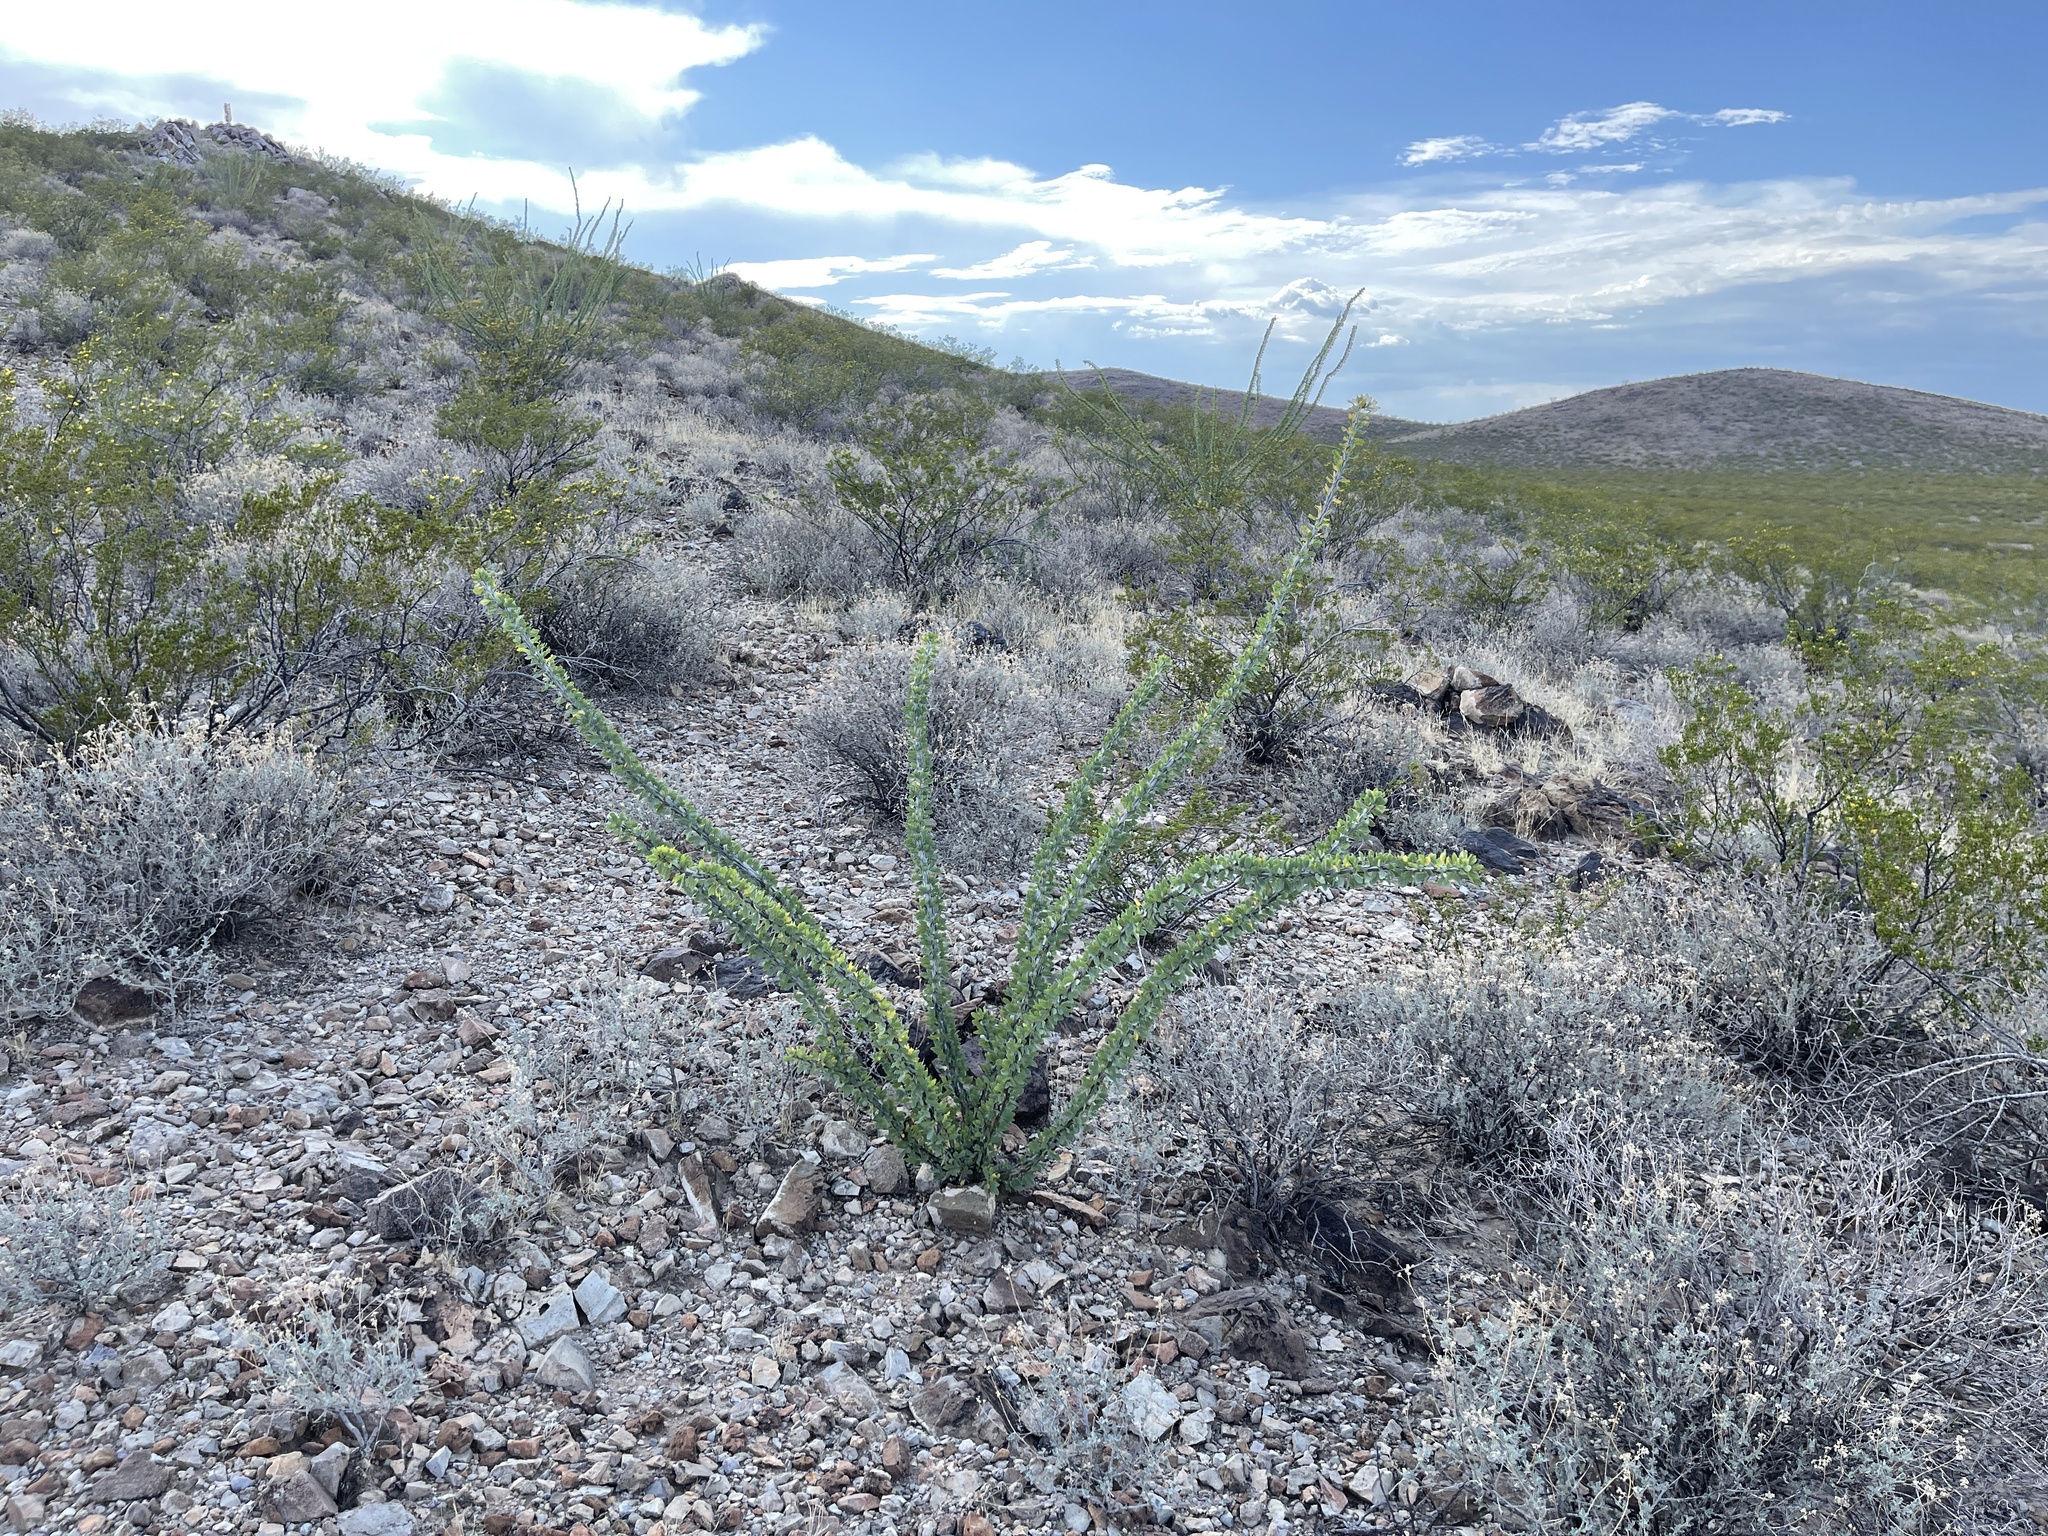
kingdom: Plantae
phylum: Tracheophyta
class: Magnoliopsida
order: Ericales
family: Fouquieriaceae
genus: Fouquieria
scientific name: Fouquieria splendens
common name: Vine-cactus
